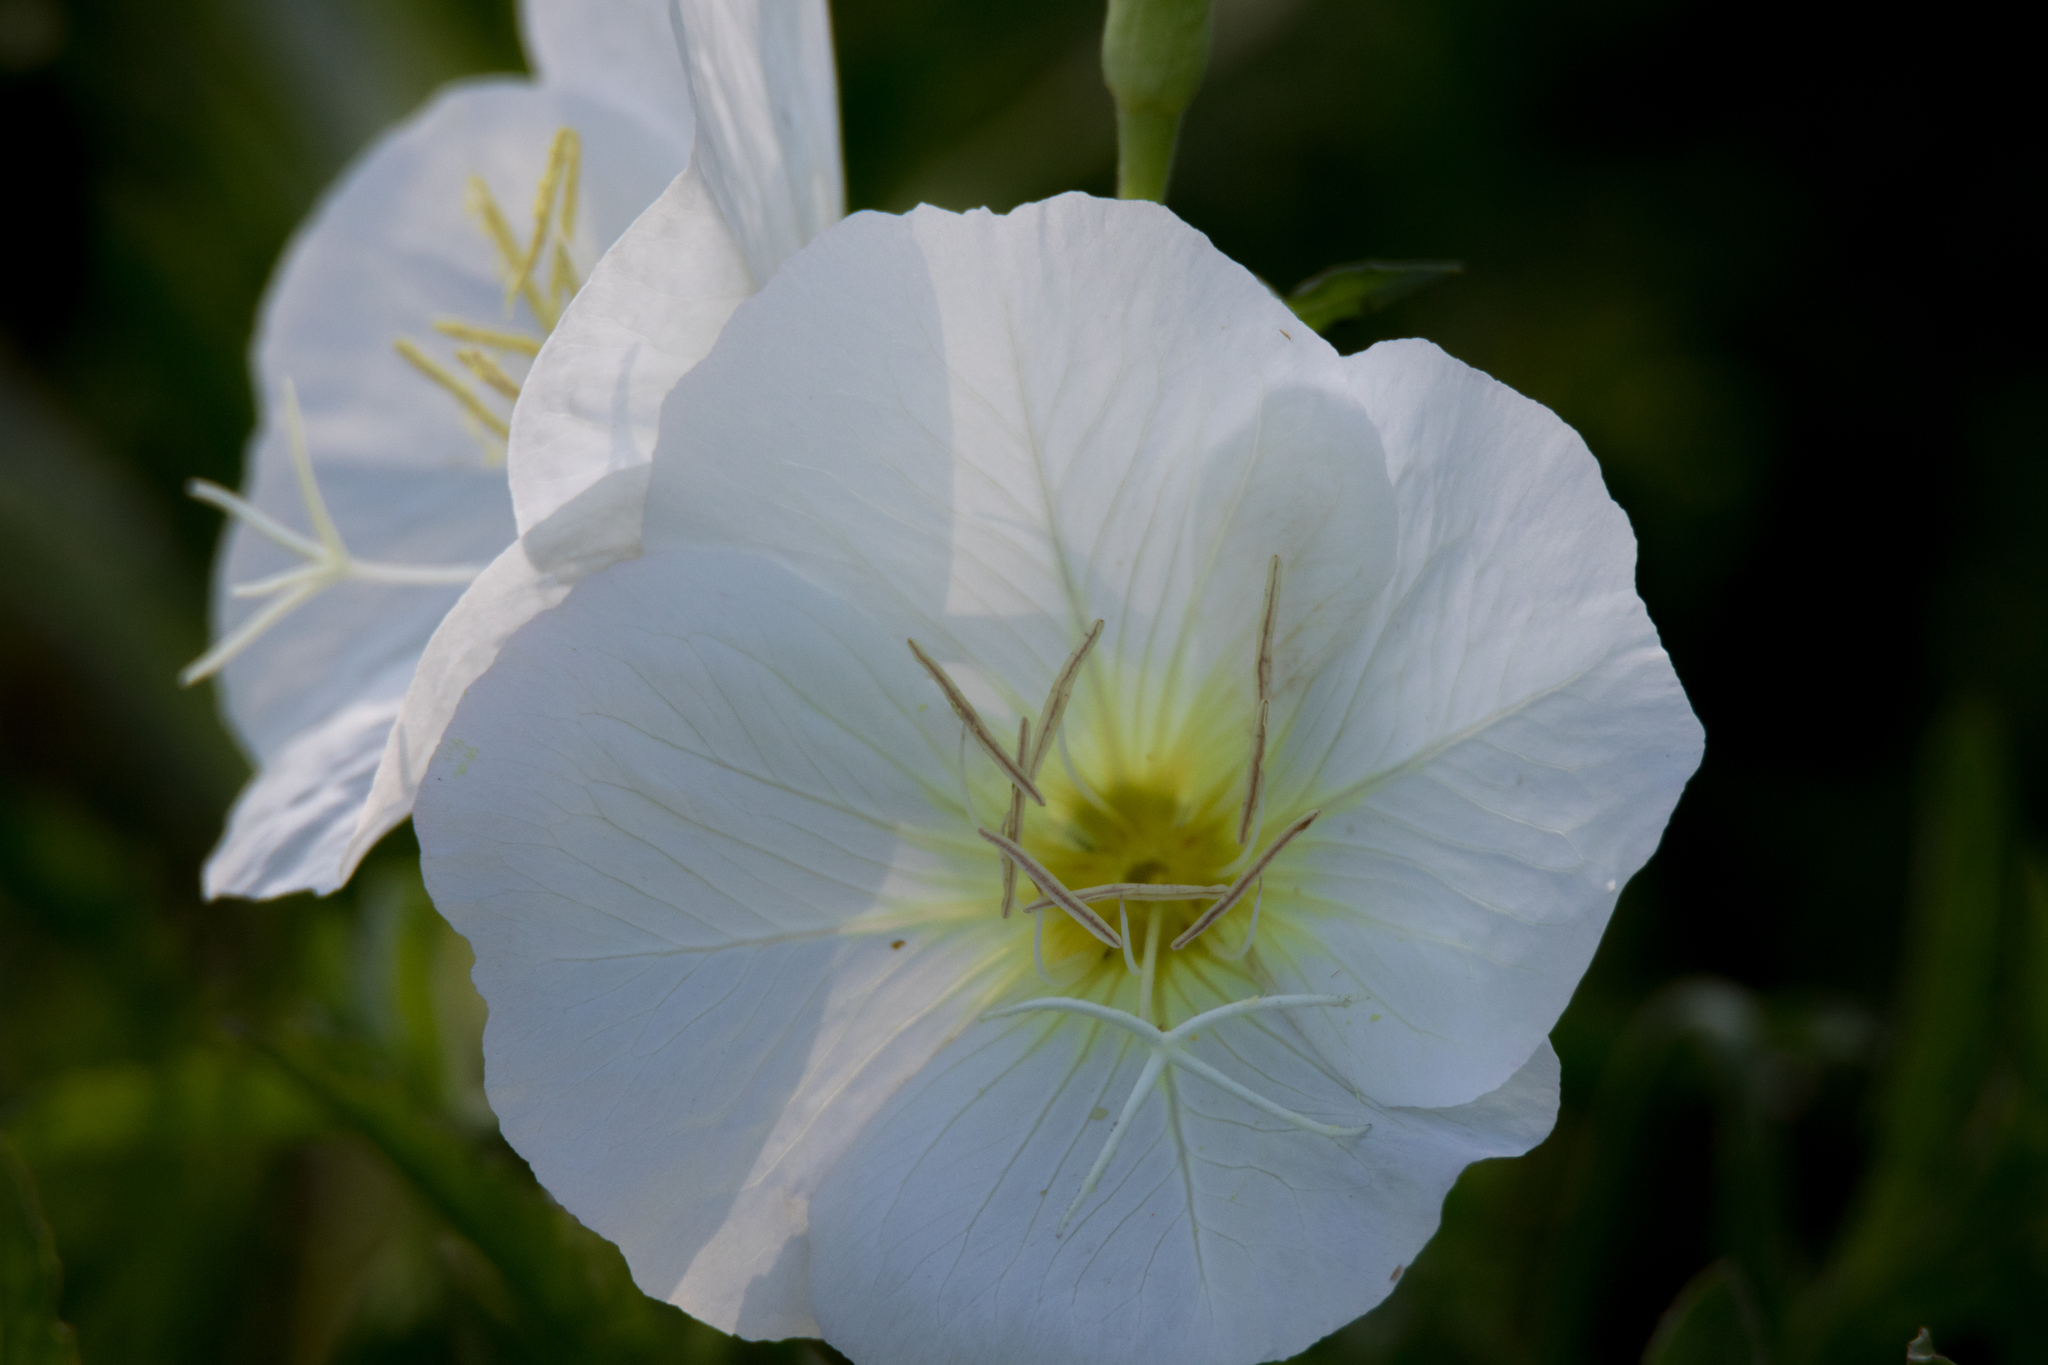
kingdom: Plantae
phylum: Tracheophyta
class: Magnoliopsida
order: Myrtales
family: Onagraceae
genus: Oenothera
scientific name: Oenothera speciosa
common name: White evening-primrose
